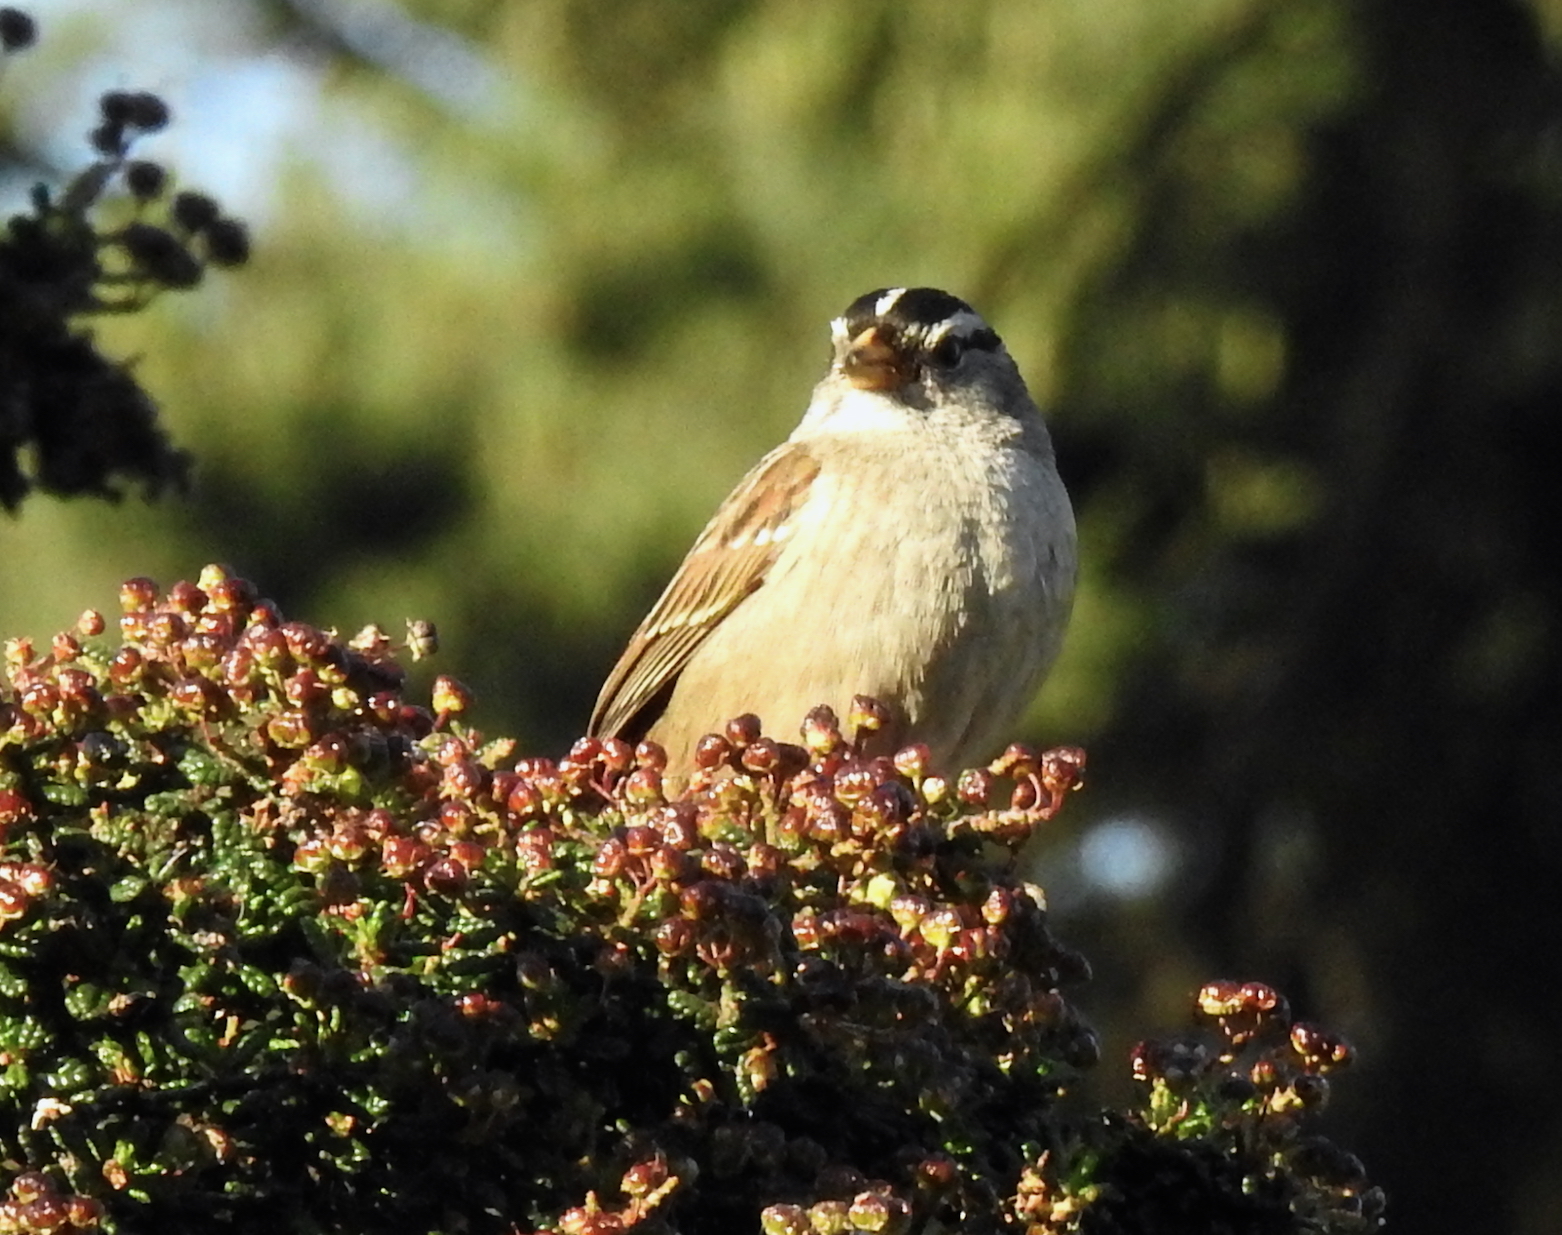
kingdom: Animalia
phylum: Chordata
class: Aves
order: Passeriformes
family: Passerellidae
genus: Zonotrichia
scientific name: Zonotrichia leucophrys
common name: White-crowned sparrow
